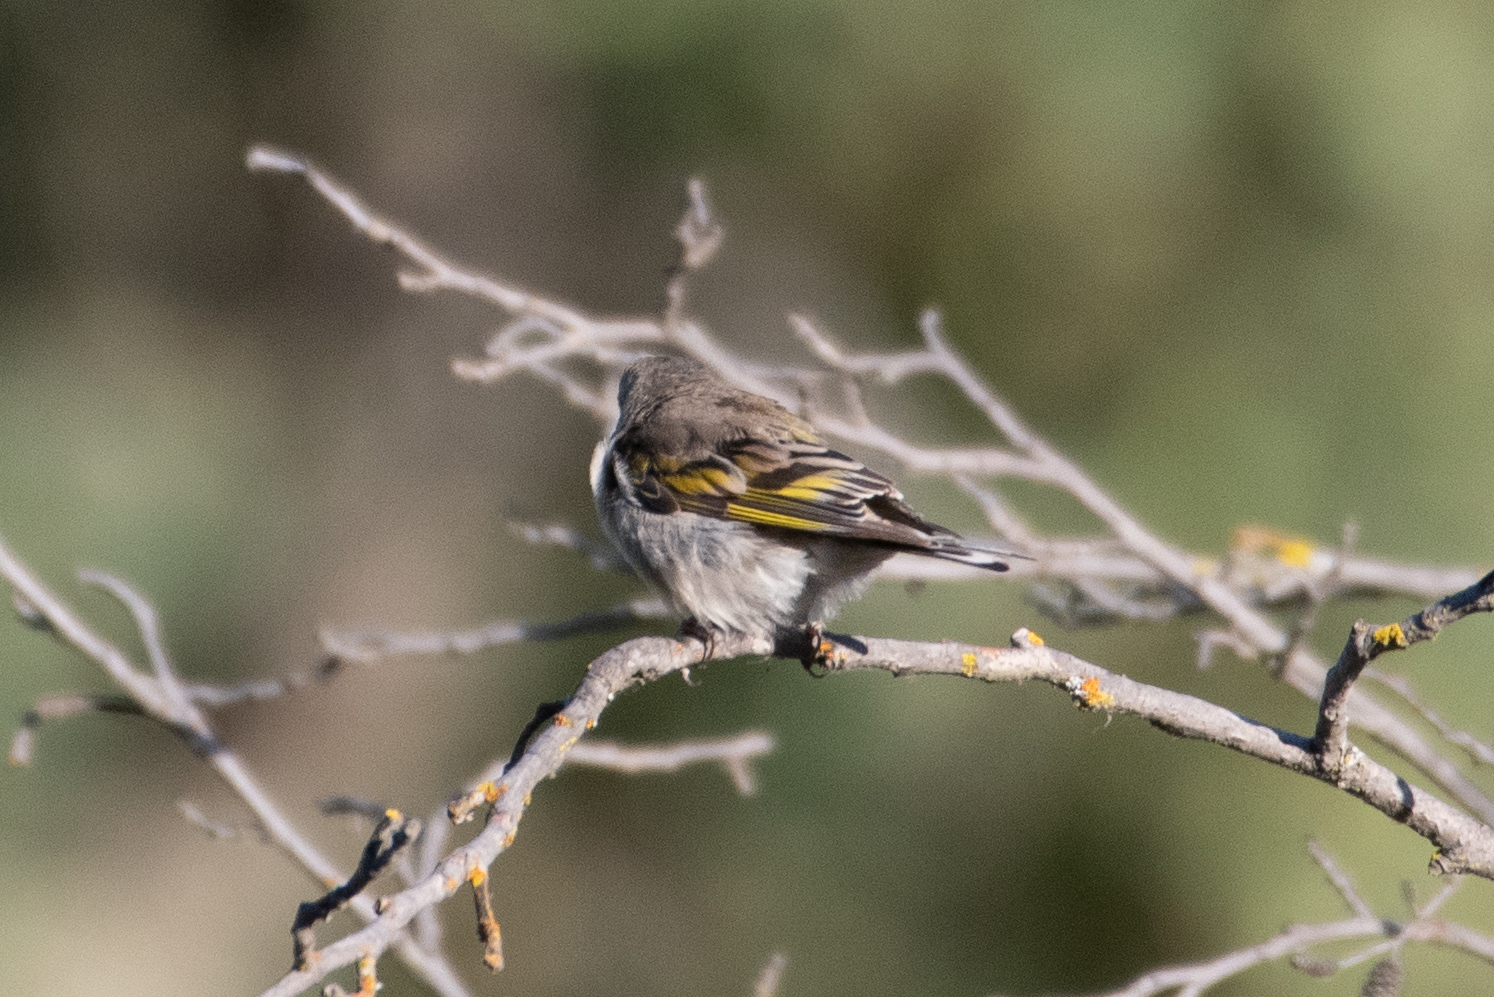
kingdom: Animalia
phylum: Chordata
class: Aves
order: Passeriformes
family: Fringillidae
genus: Spinus
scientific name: Spinus lawrencei
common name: Lawrence's goldfinch
